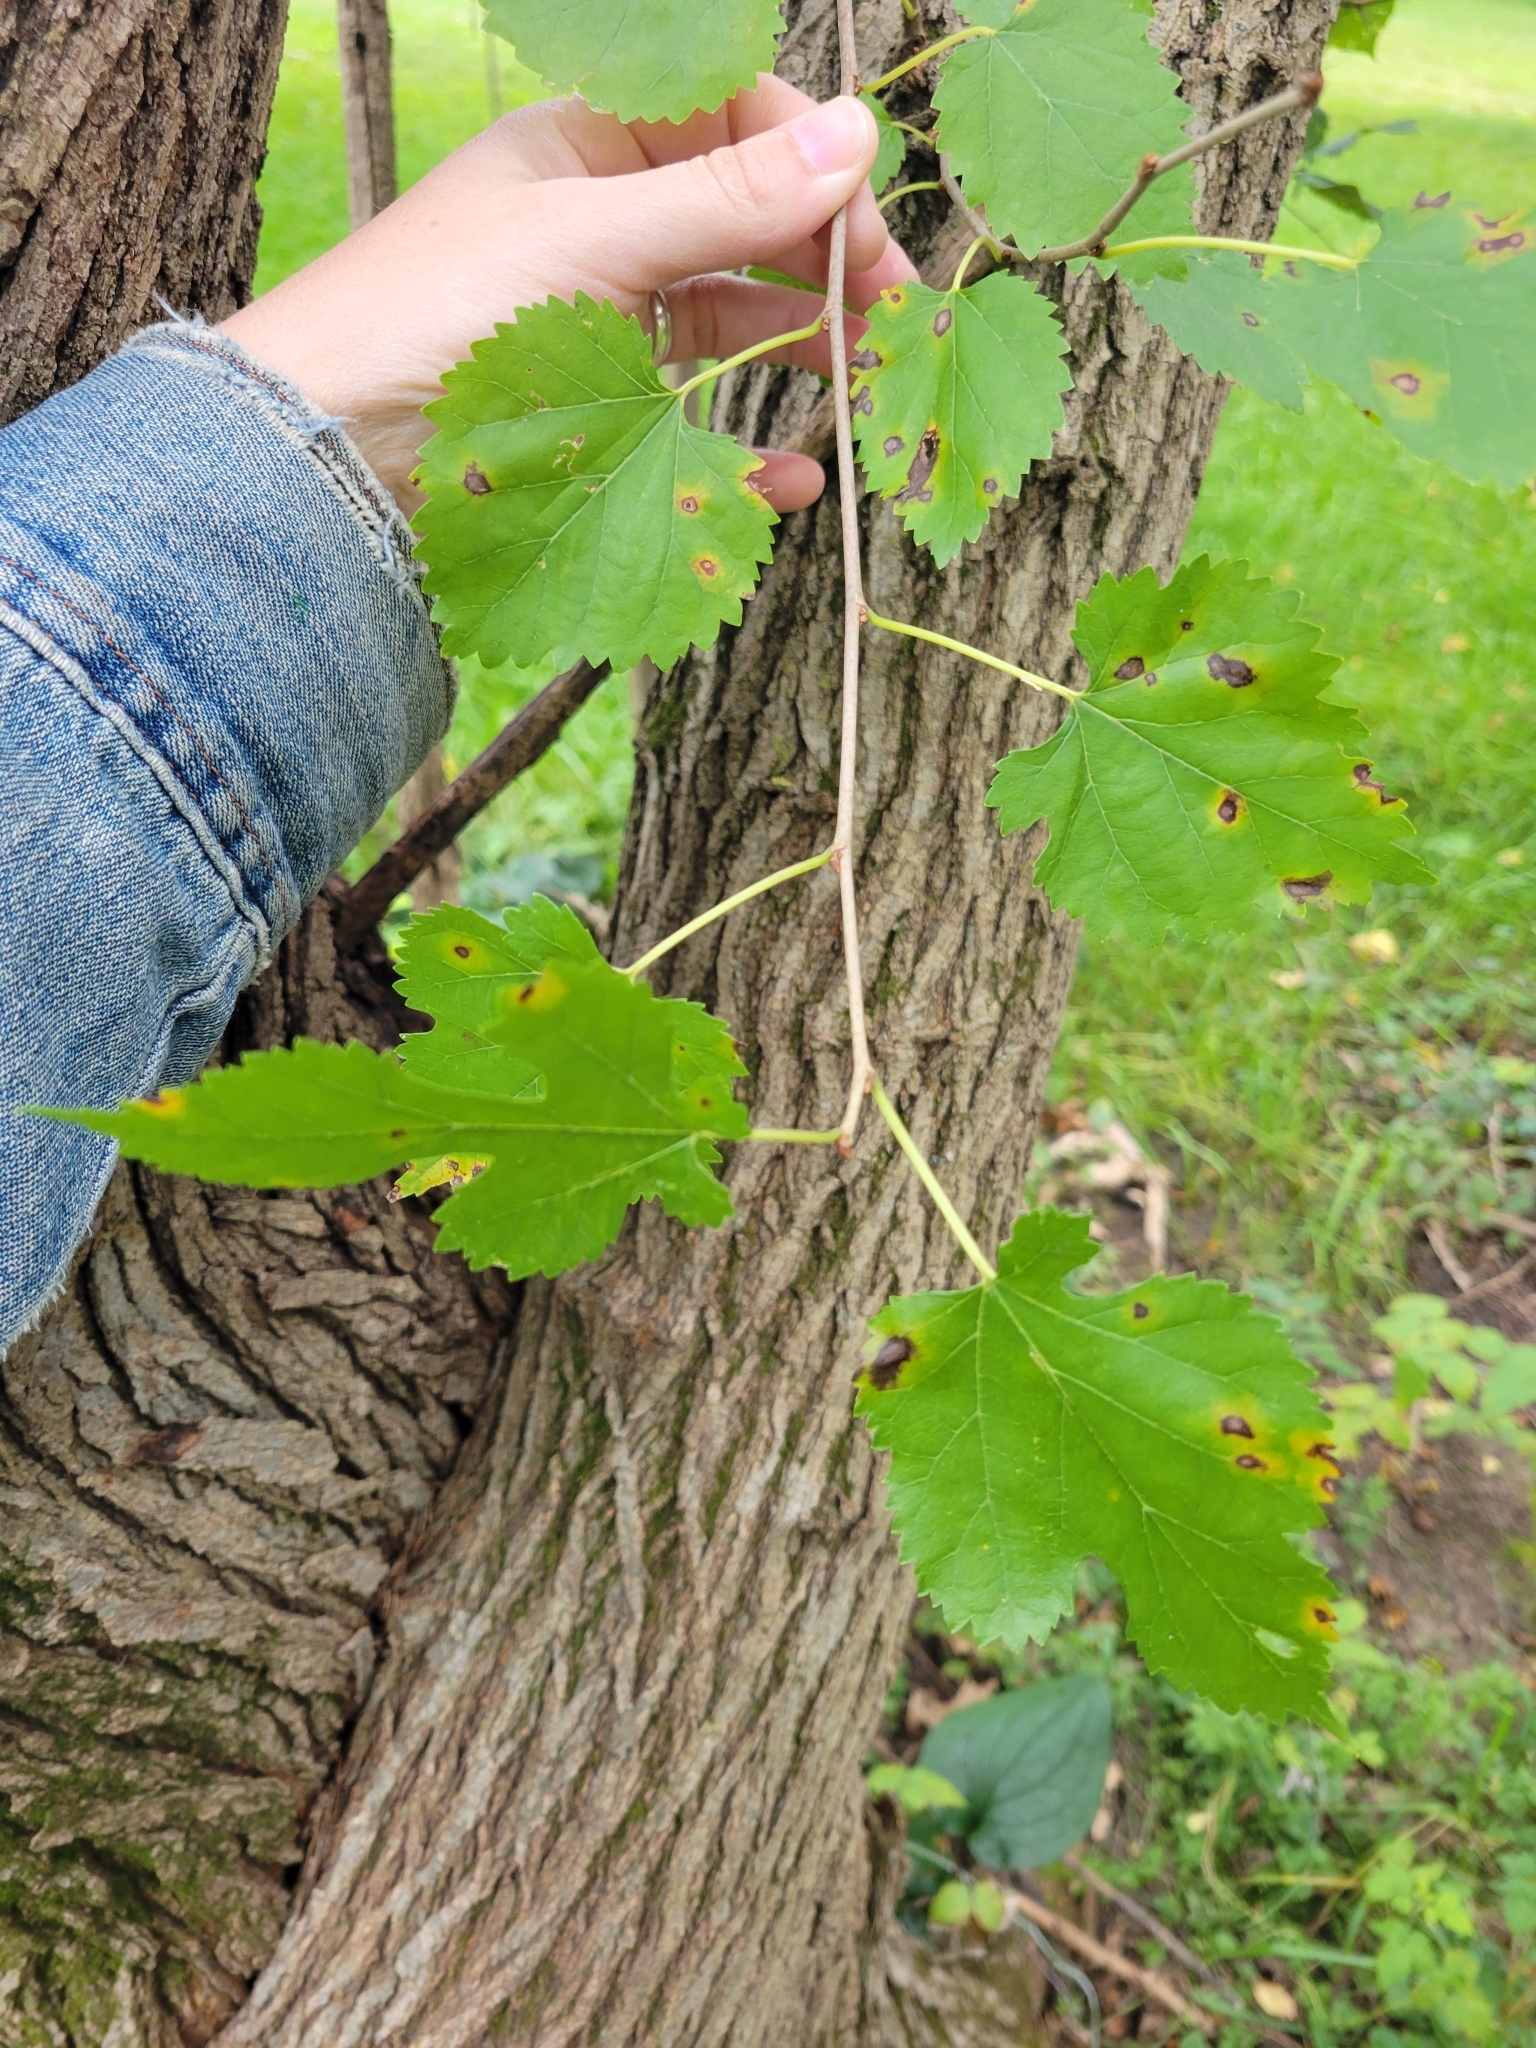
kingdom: Plantae
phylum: Tracheophyta
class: Magnoliopsida
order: Rosales
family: Moraceae
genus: Morus
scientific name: Morus alba
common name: White mulberry
